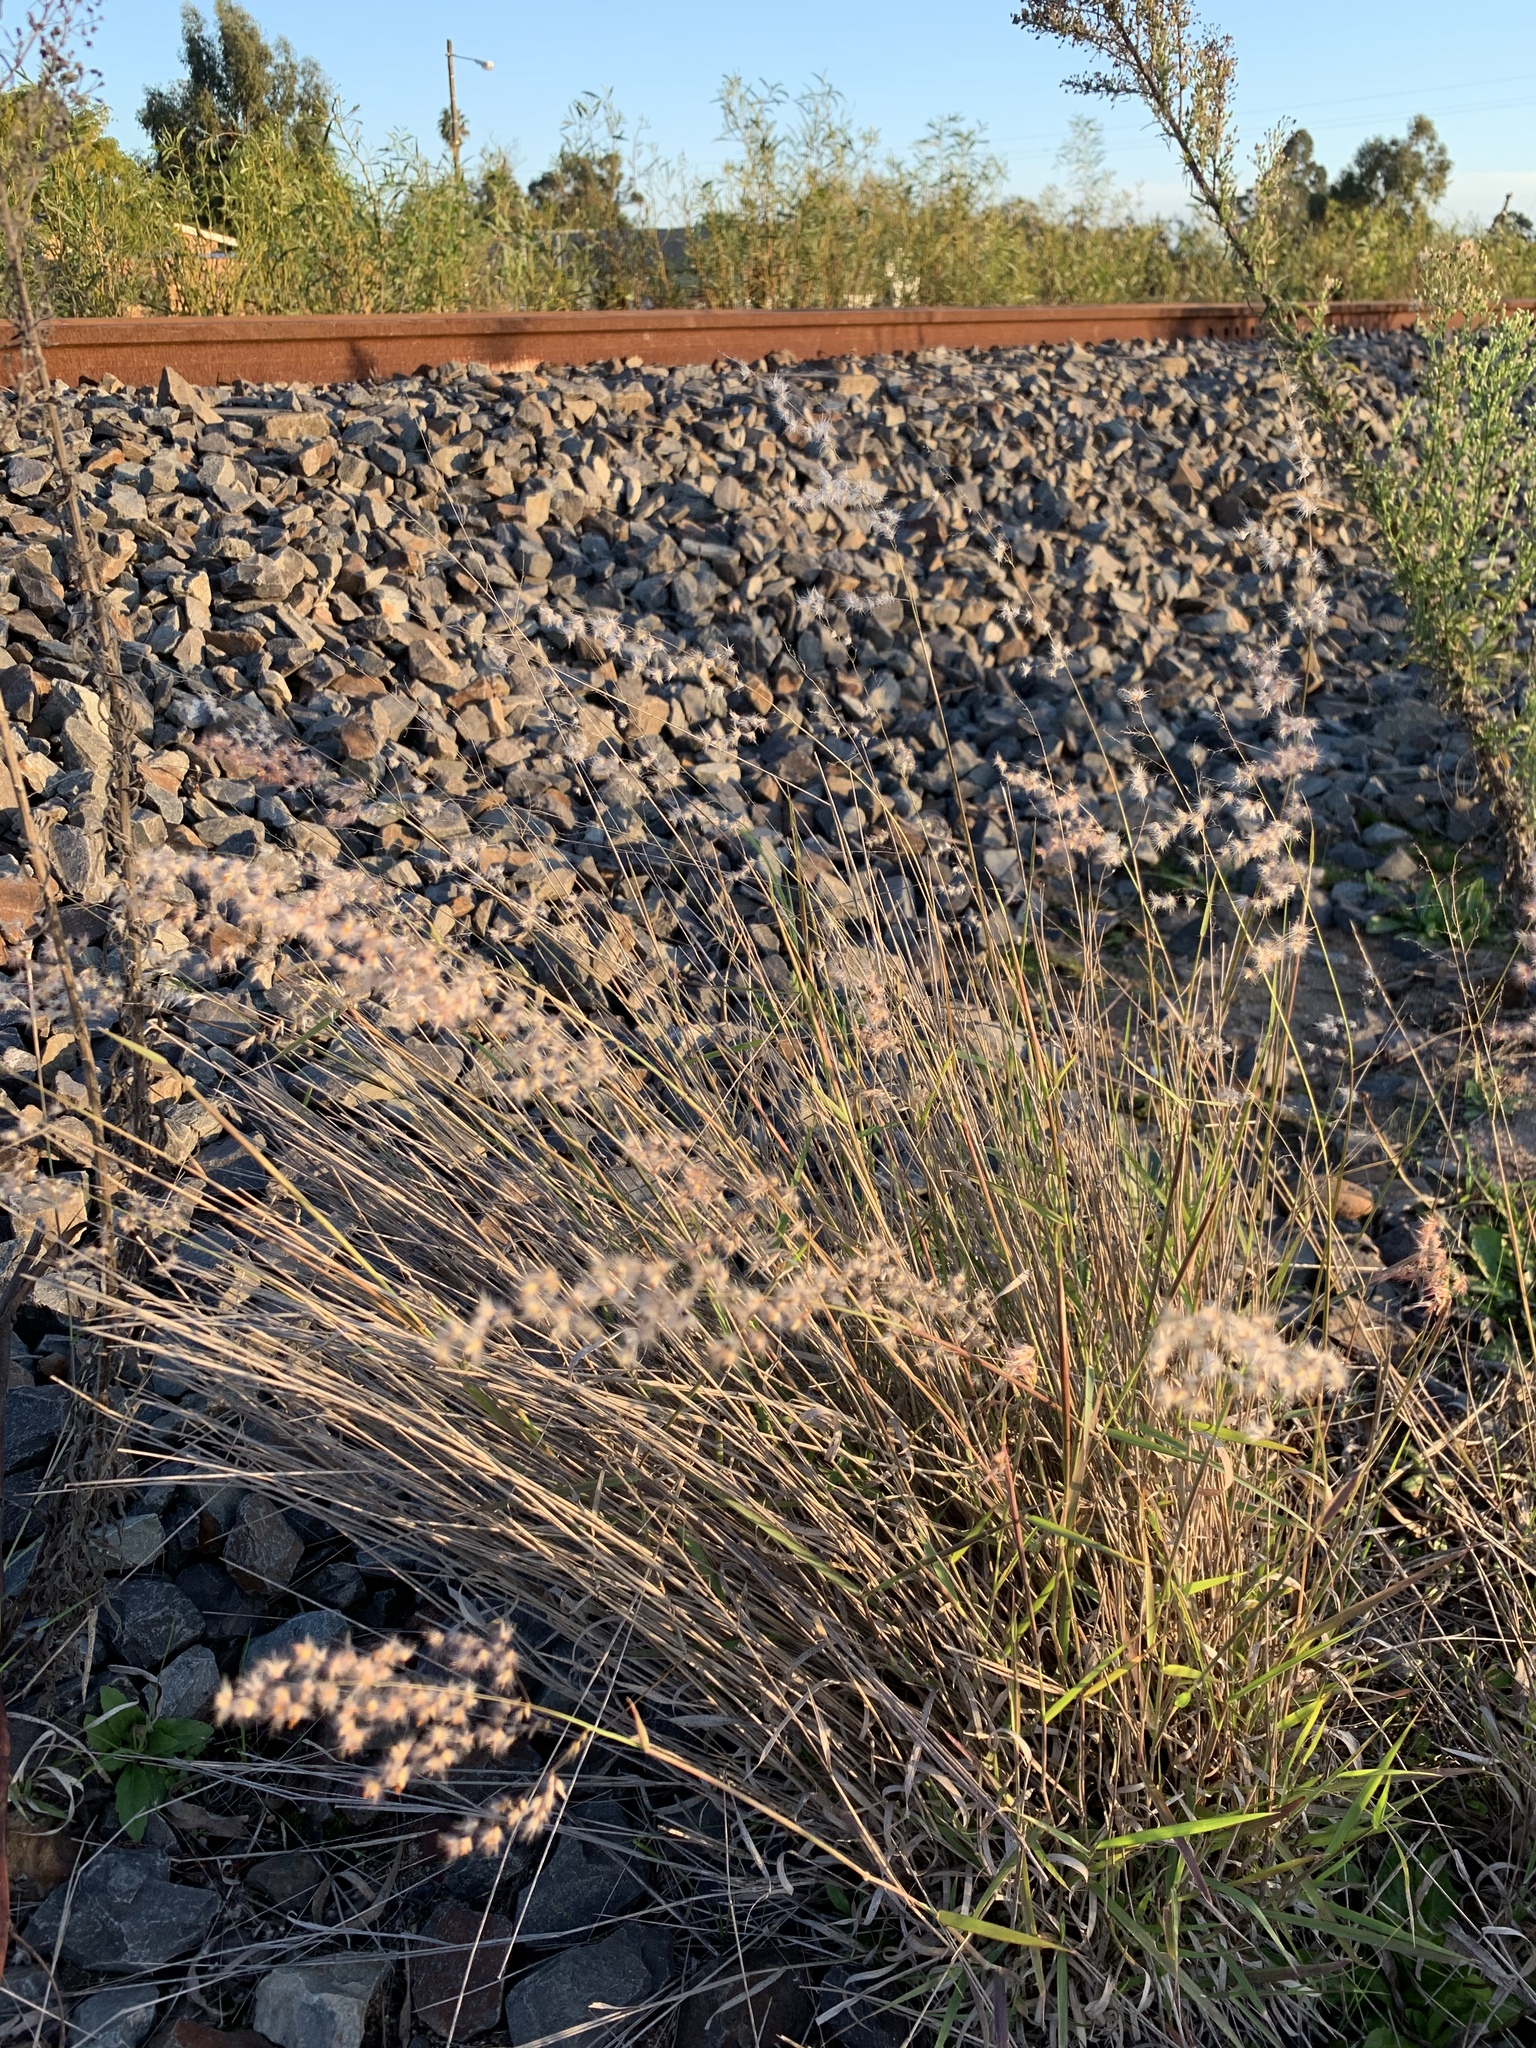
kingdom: Plantae
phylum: Tracheophyta
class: Liliopsida
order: Poales
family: Poaceae
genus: Melinis
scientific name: Melinis repens
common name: Rose natal grass
